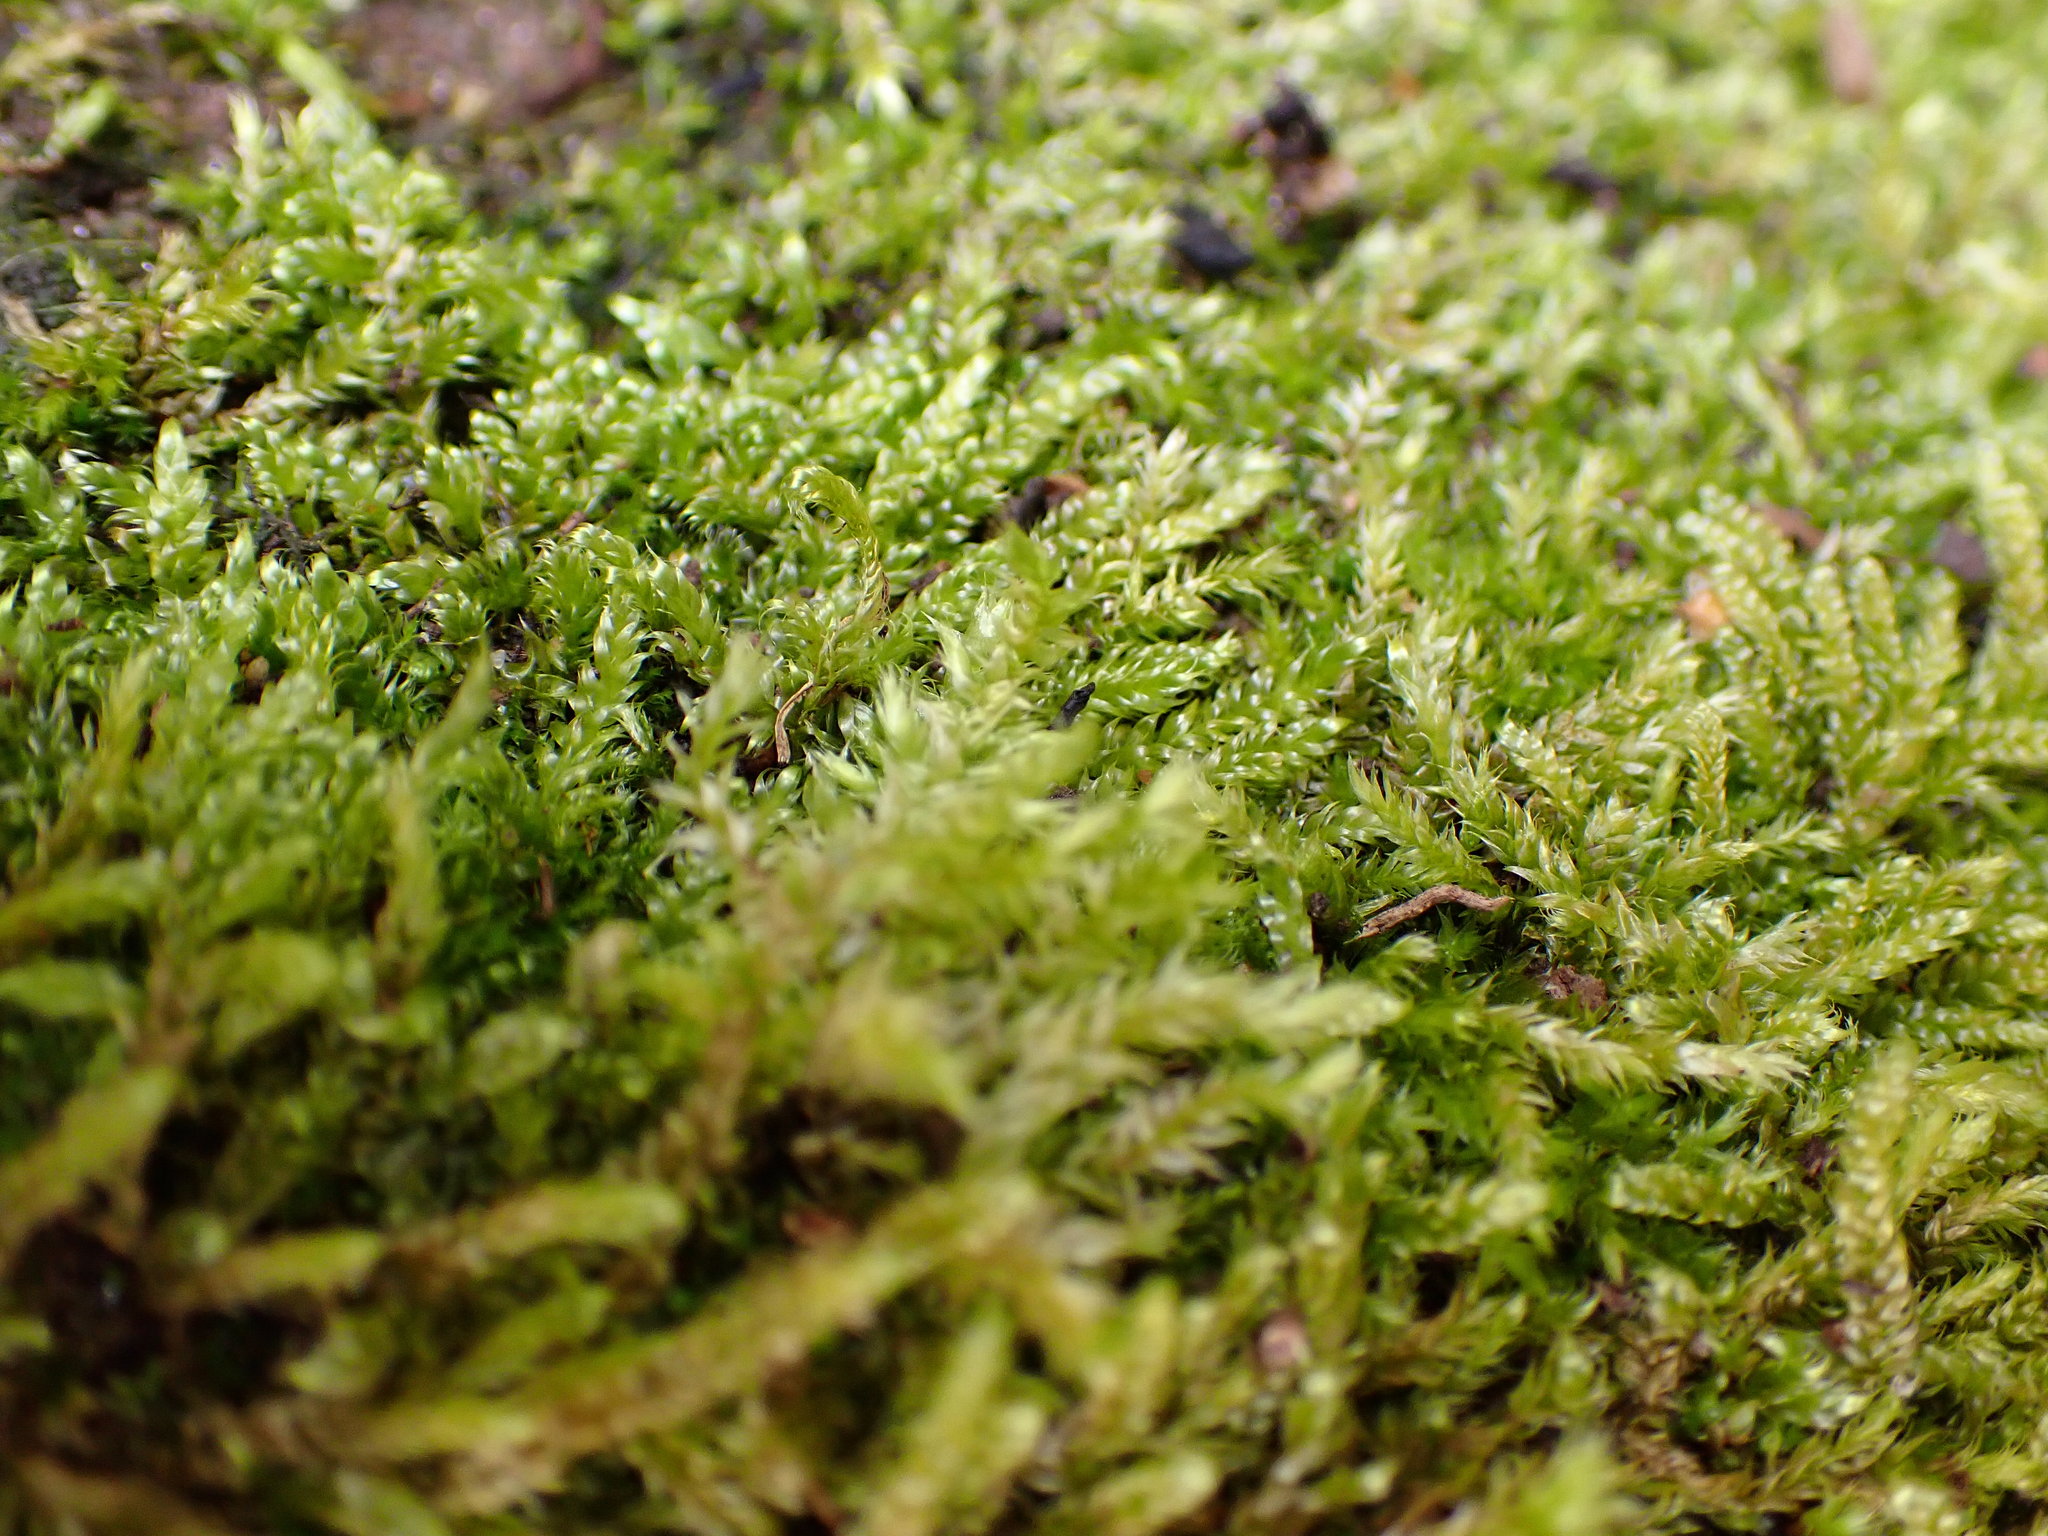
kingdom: Plantae
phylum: Bryophyta
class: Bryopsida
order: Hypnales
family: Hypnaceae
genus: Hypnum
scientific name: Hypnum cupressiforme
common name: Cypress-leaved plait-moss
